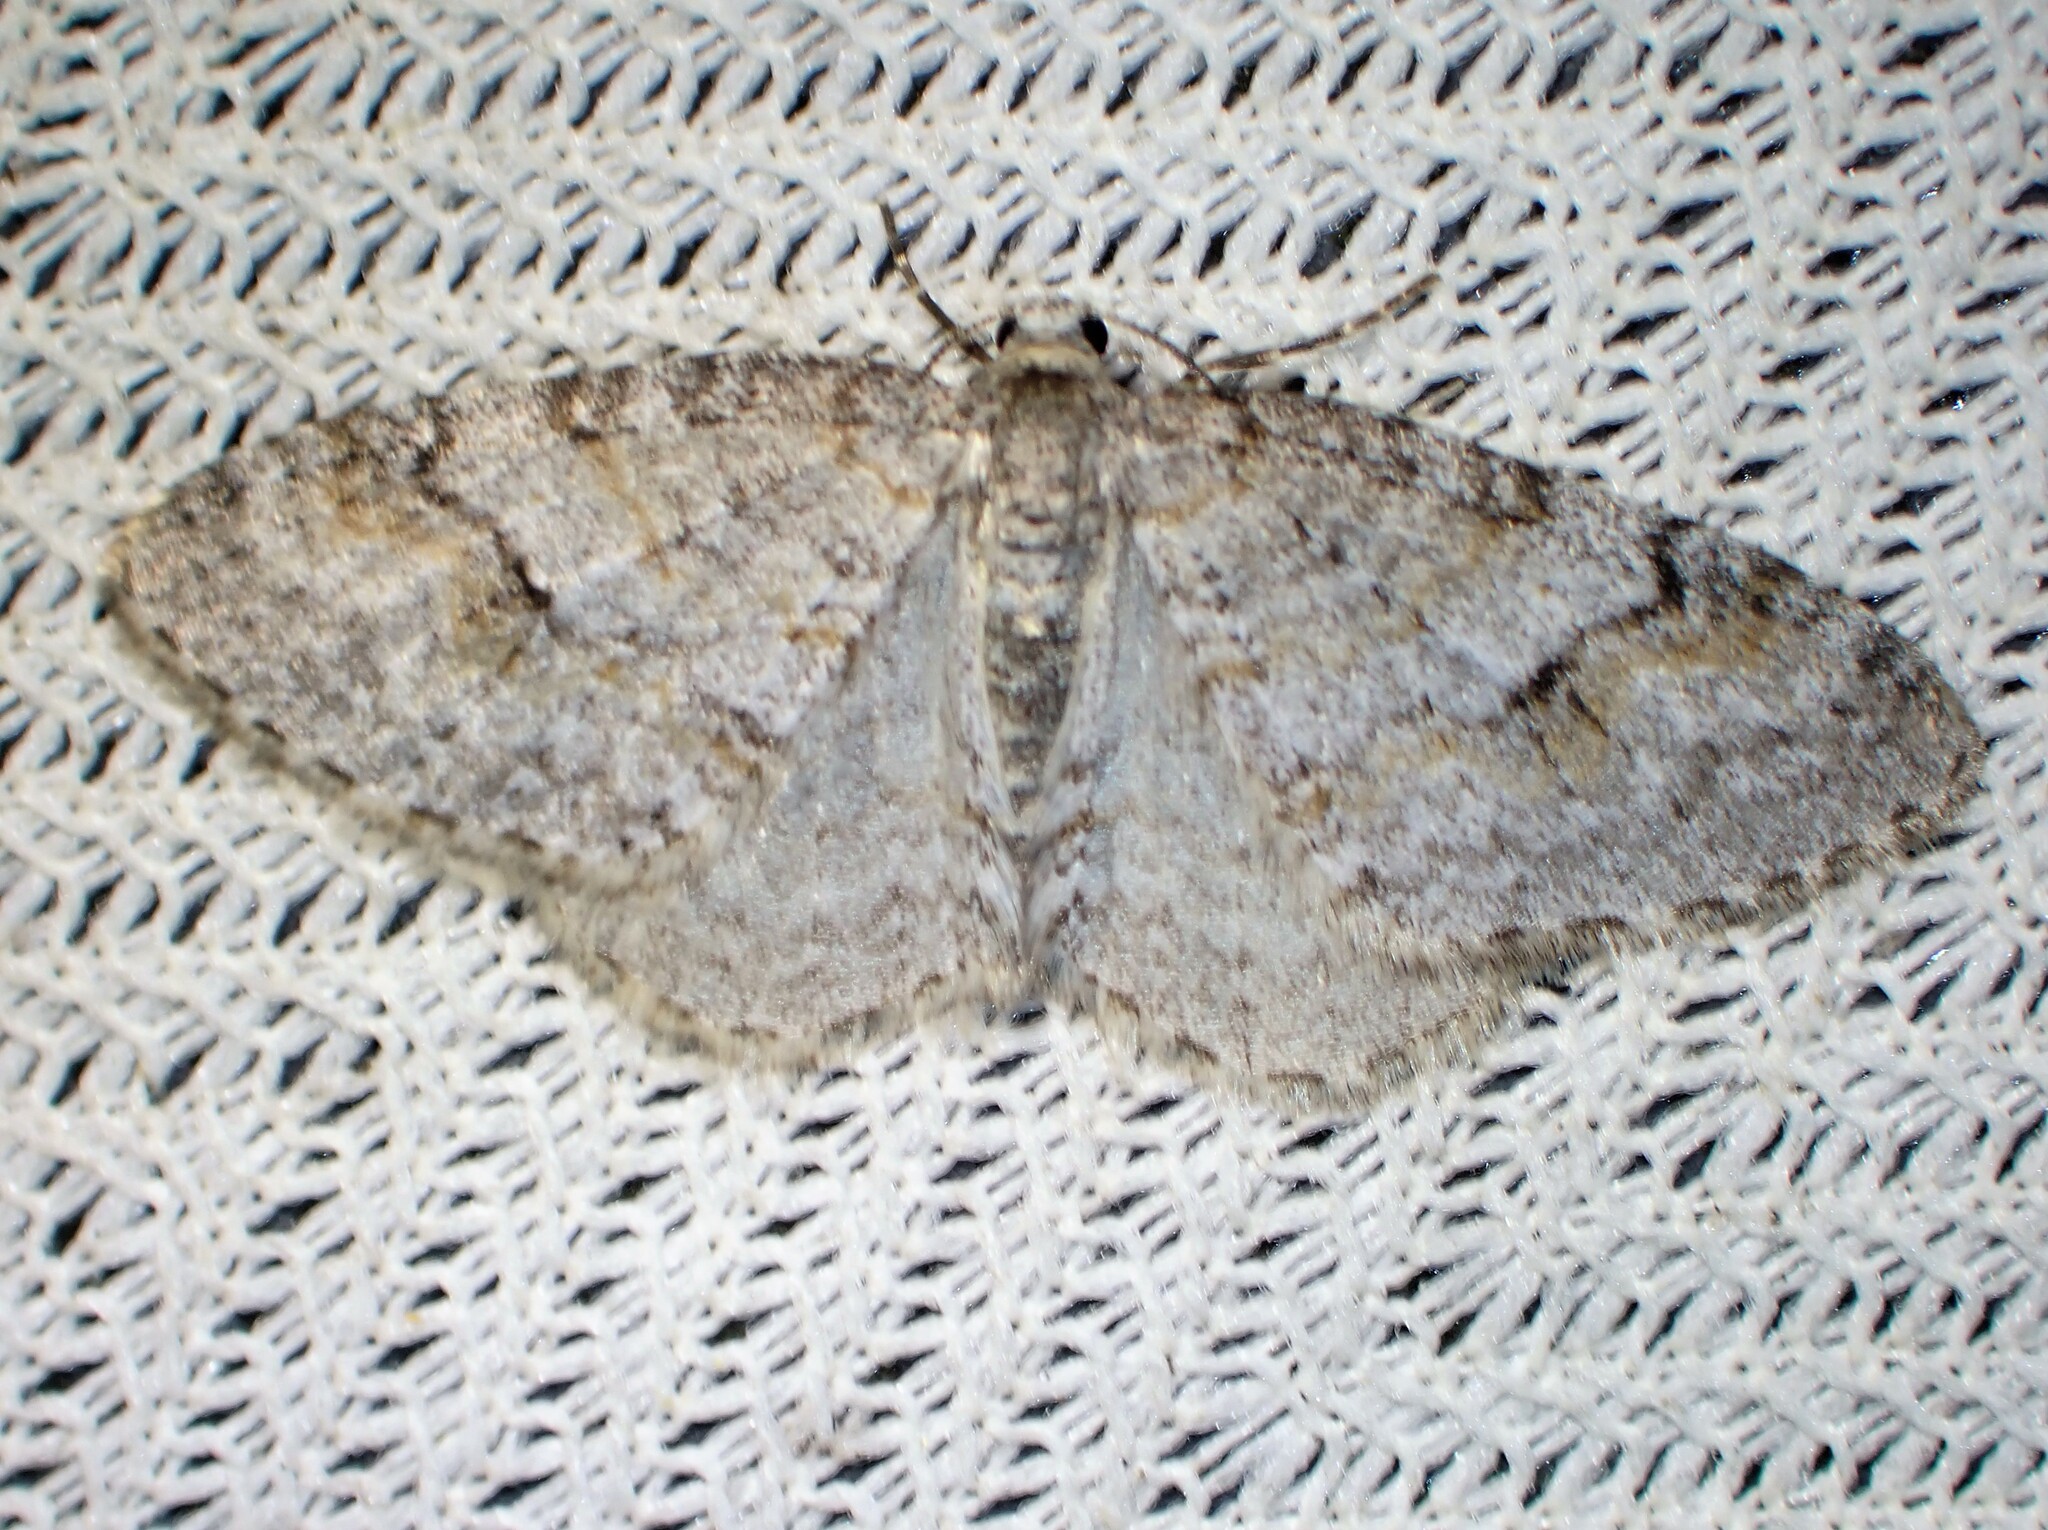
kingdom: Animalia
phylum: Arthropoda
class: Insecta
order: Lepidoptera
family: Geometridae
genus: Venusia
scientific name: Venusia comptaria
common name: Brown-shaded carpet
